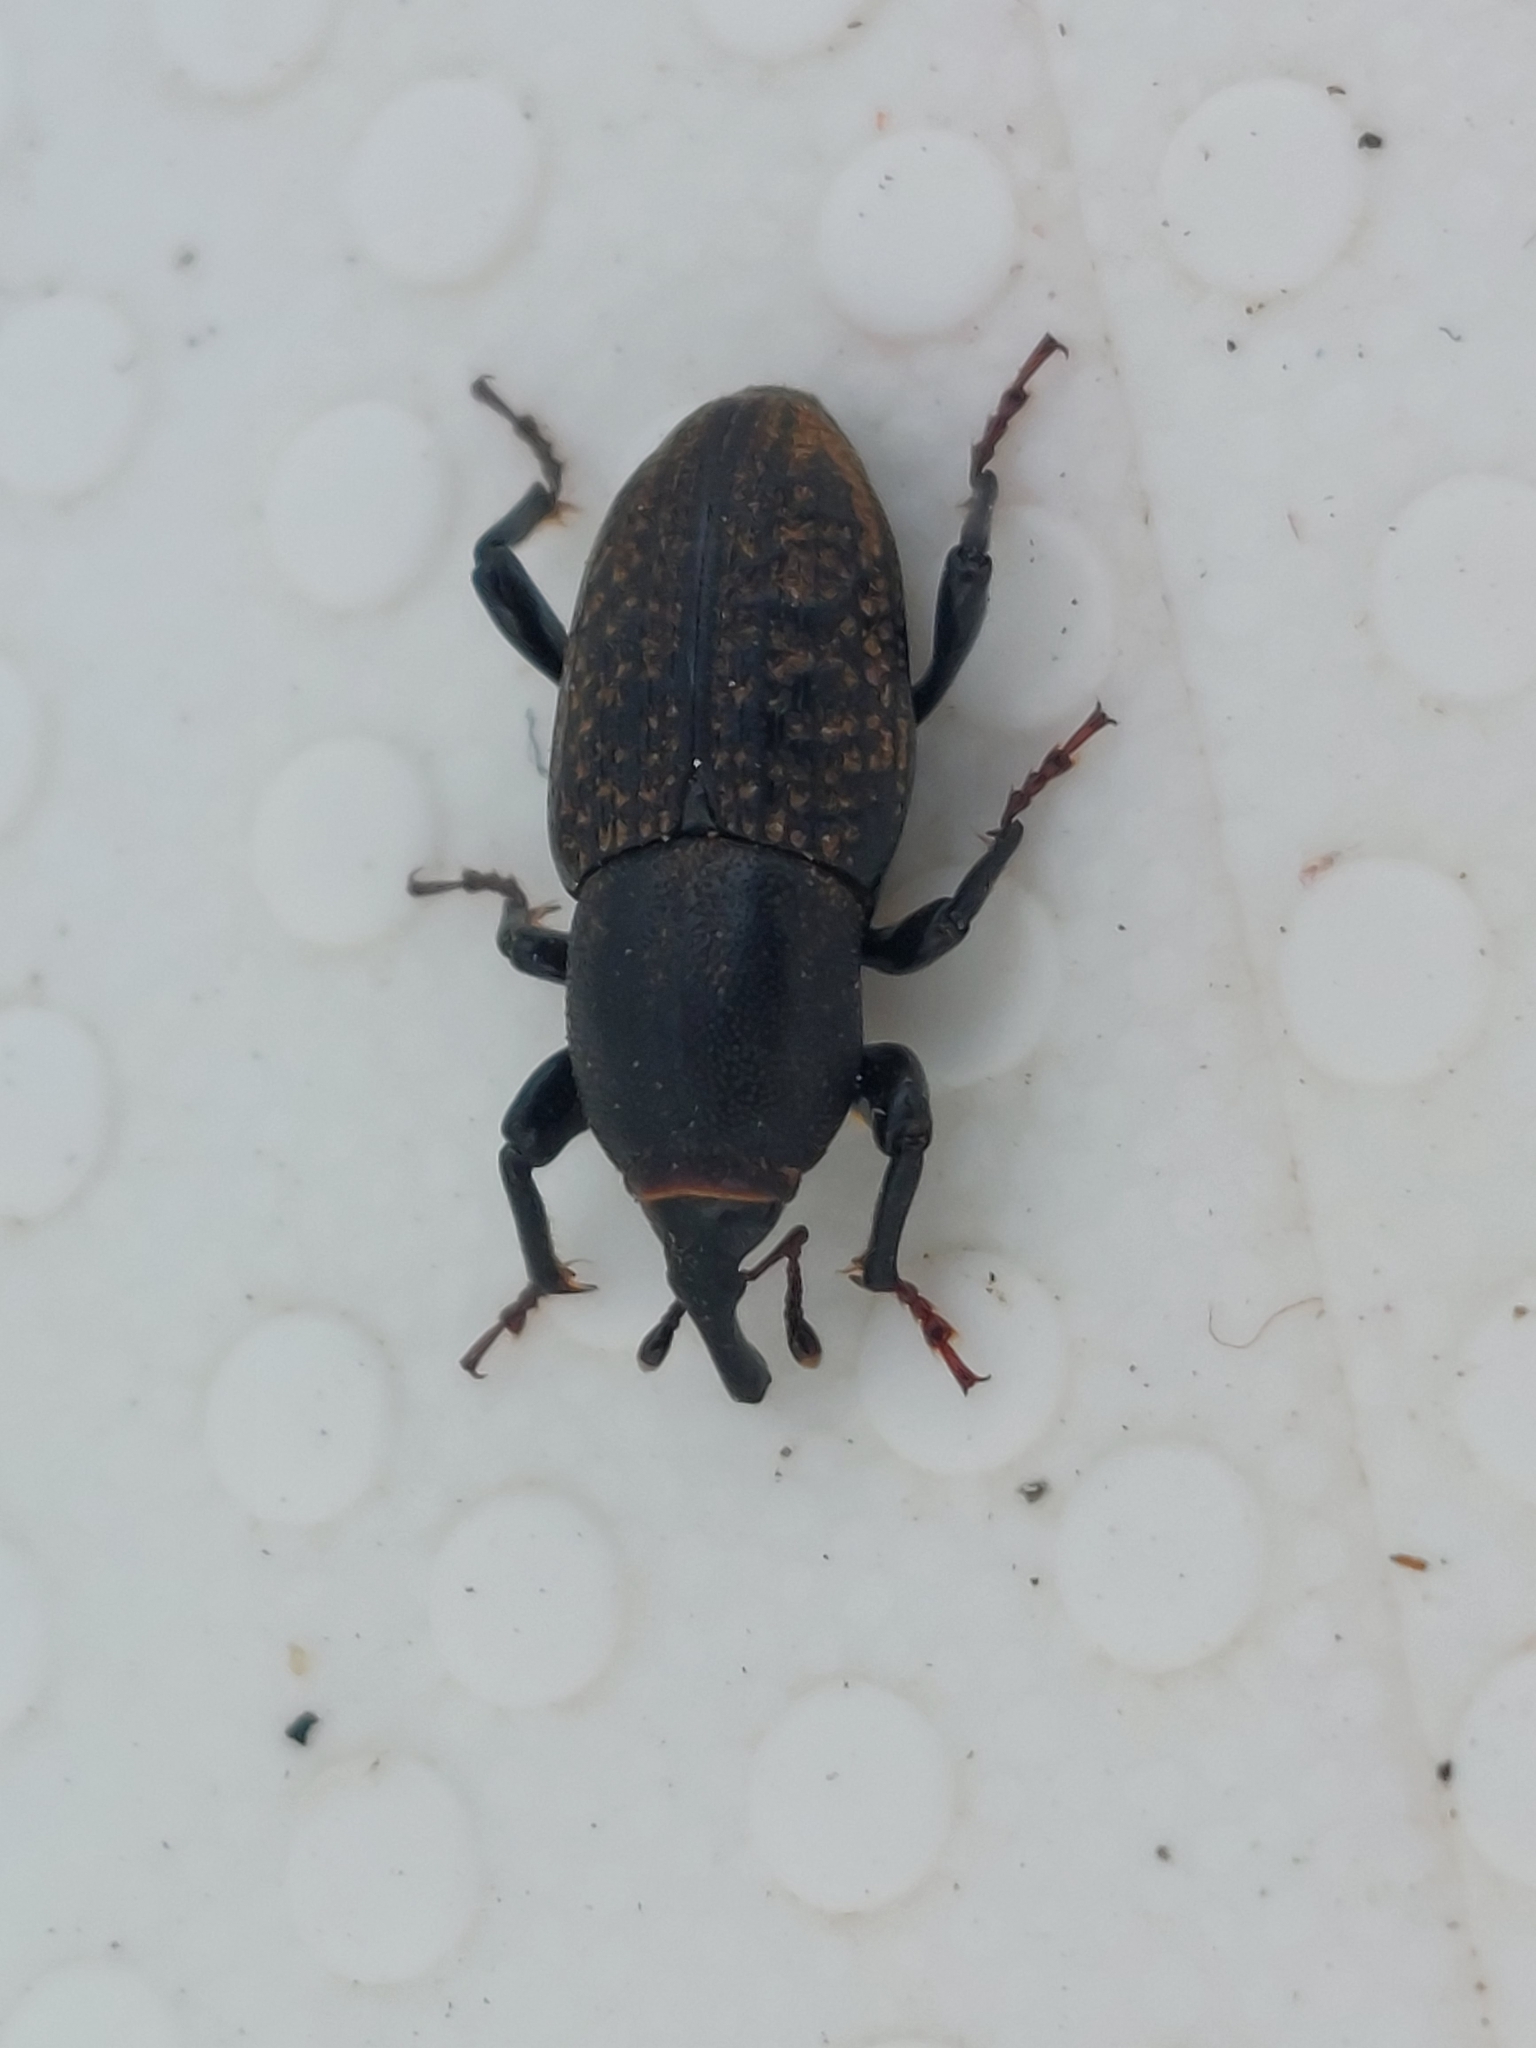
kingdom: Animalia
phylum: Arthropoda
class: Insecta
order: Coleoptera
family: Dryophthoridae
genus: Sphenophorus
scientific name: Sphenophorus cicatristriatus
